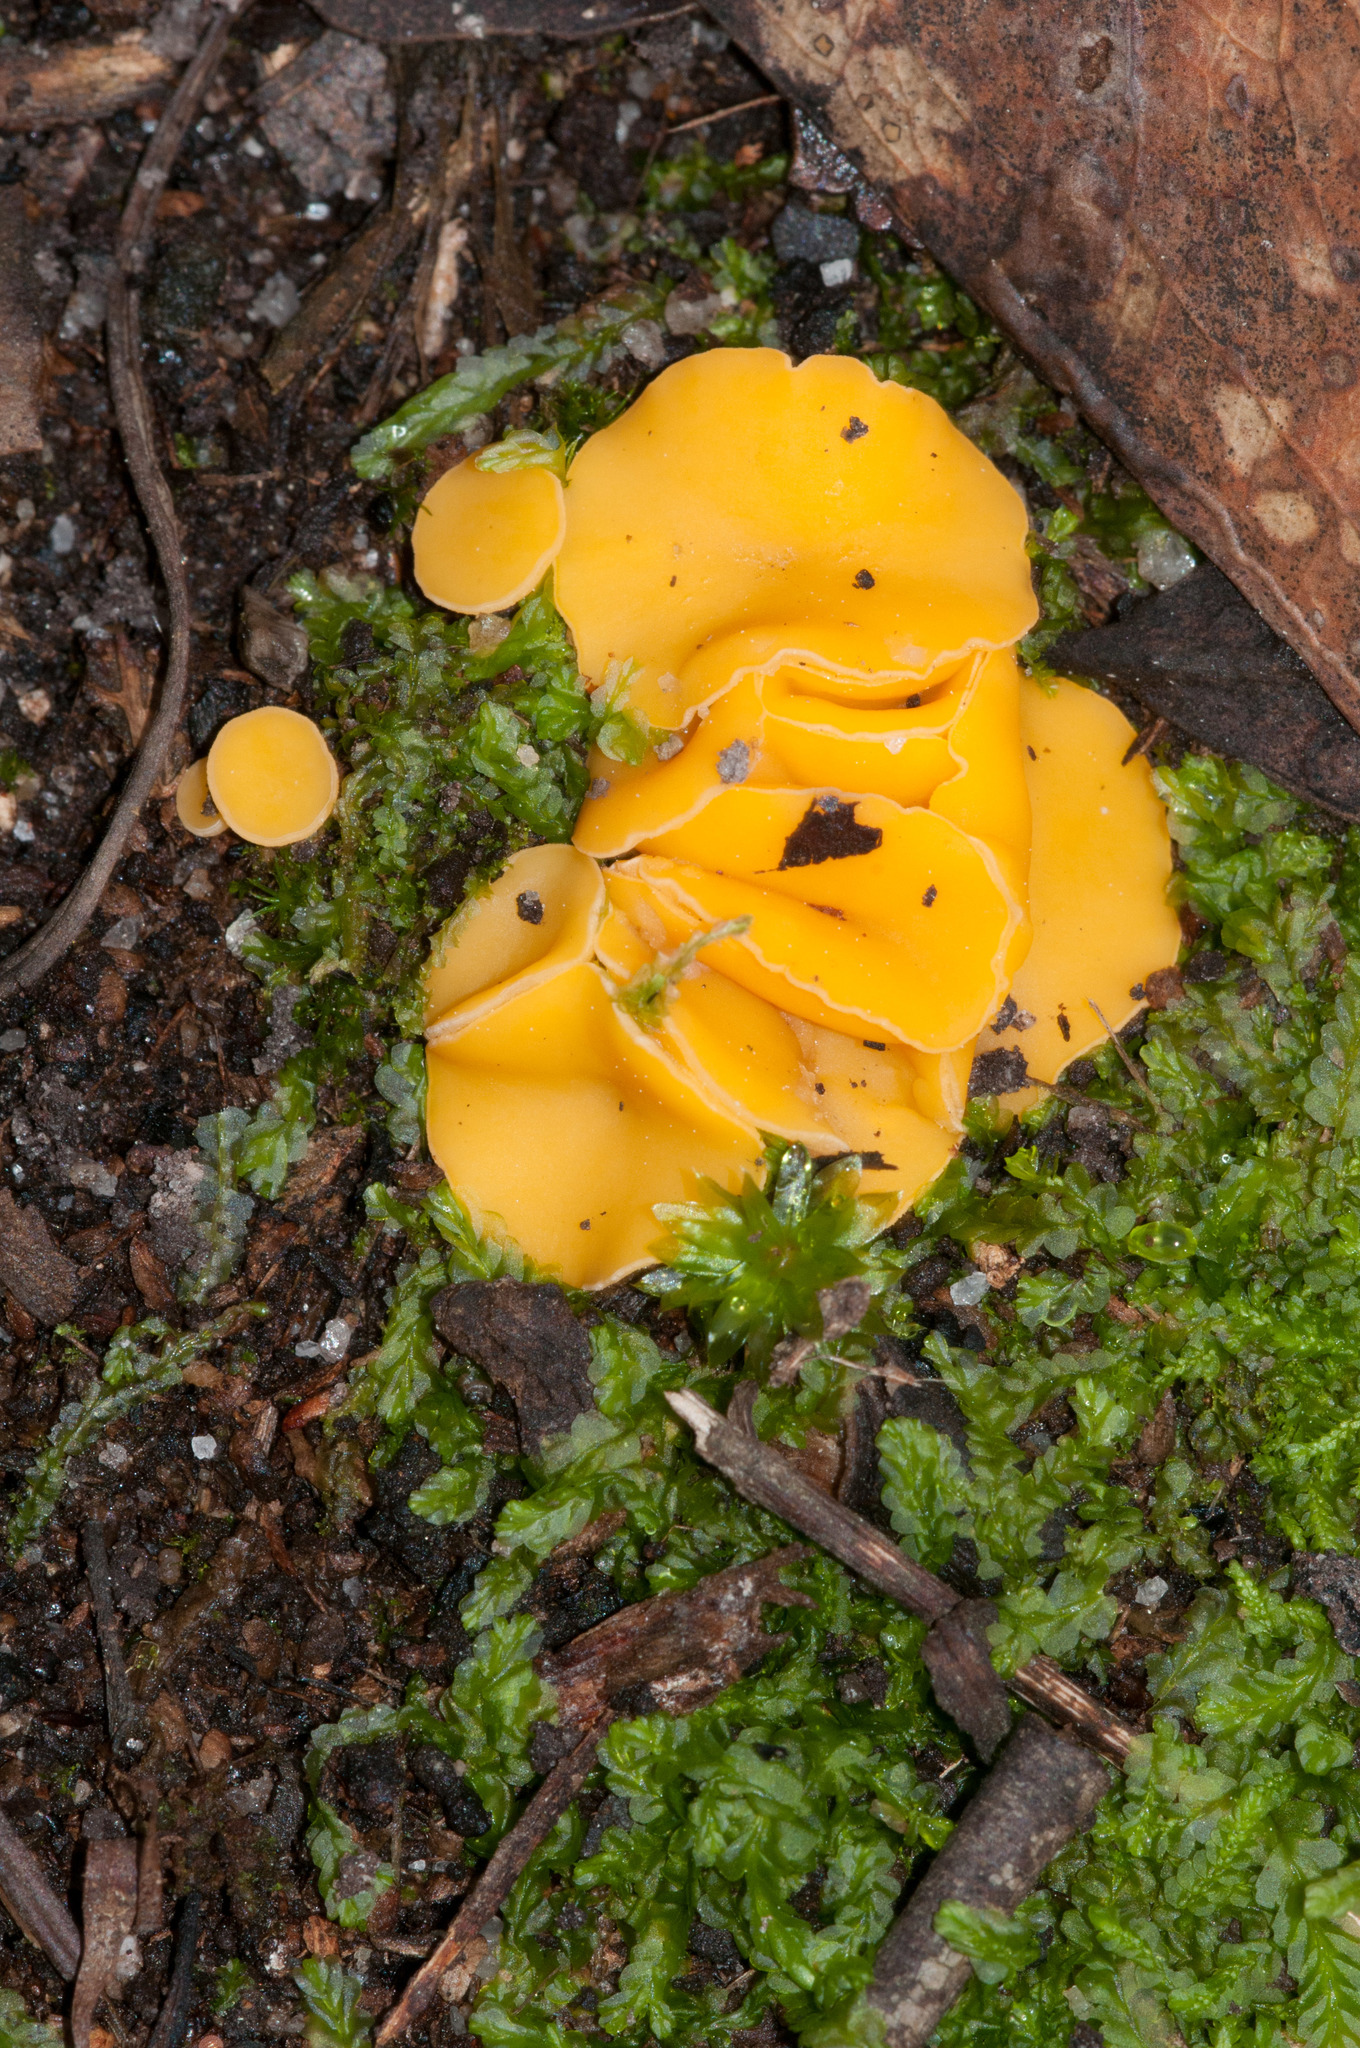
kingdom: Fungi
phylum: Ascomycota
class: Pezizomycetes
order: Pezizales
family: Pyronemataceae
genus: Aleuria
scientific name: Aleuria aurantia
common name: Orange peel fungus
